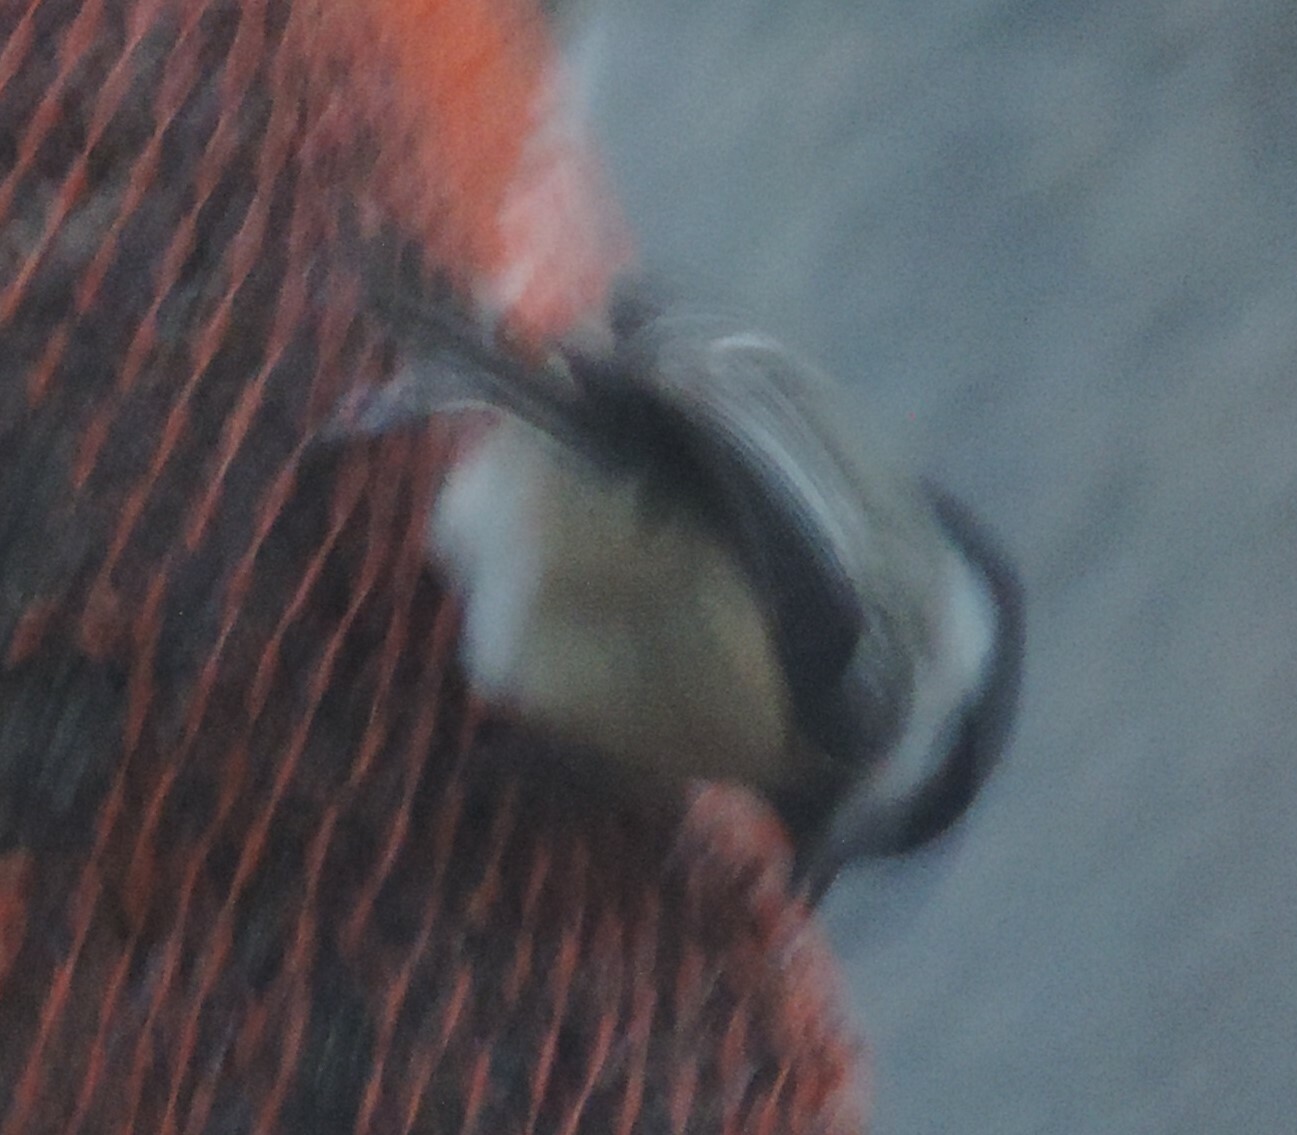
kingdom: Animalia
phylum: Chordata
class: Aves
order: Passeriformes
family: Paridae
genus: Poecile
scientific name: Poecile atricapillus
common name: Black-capped chickadee
